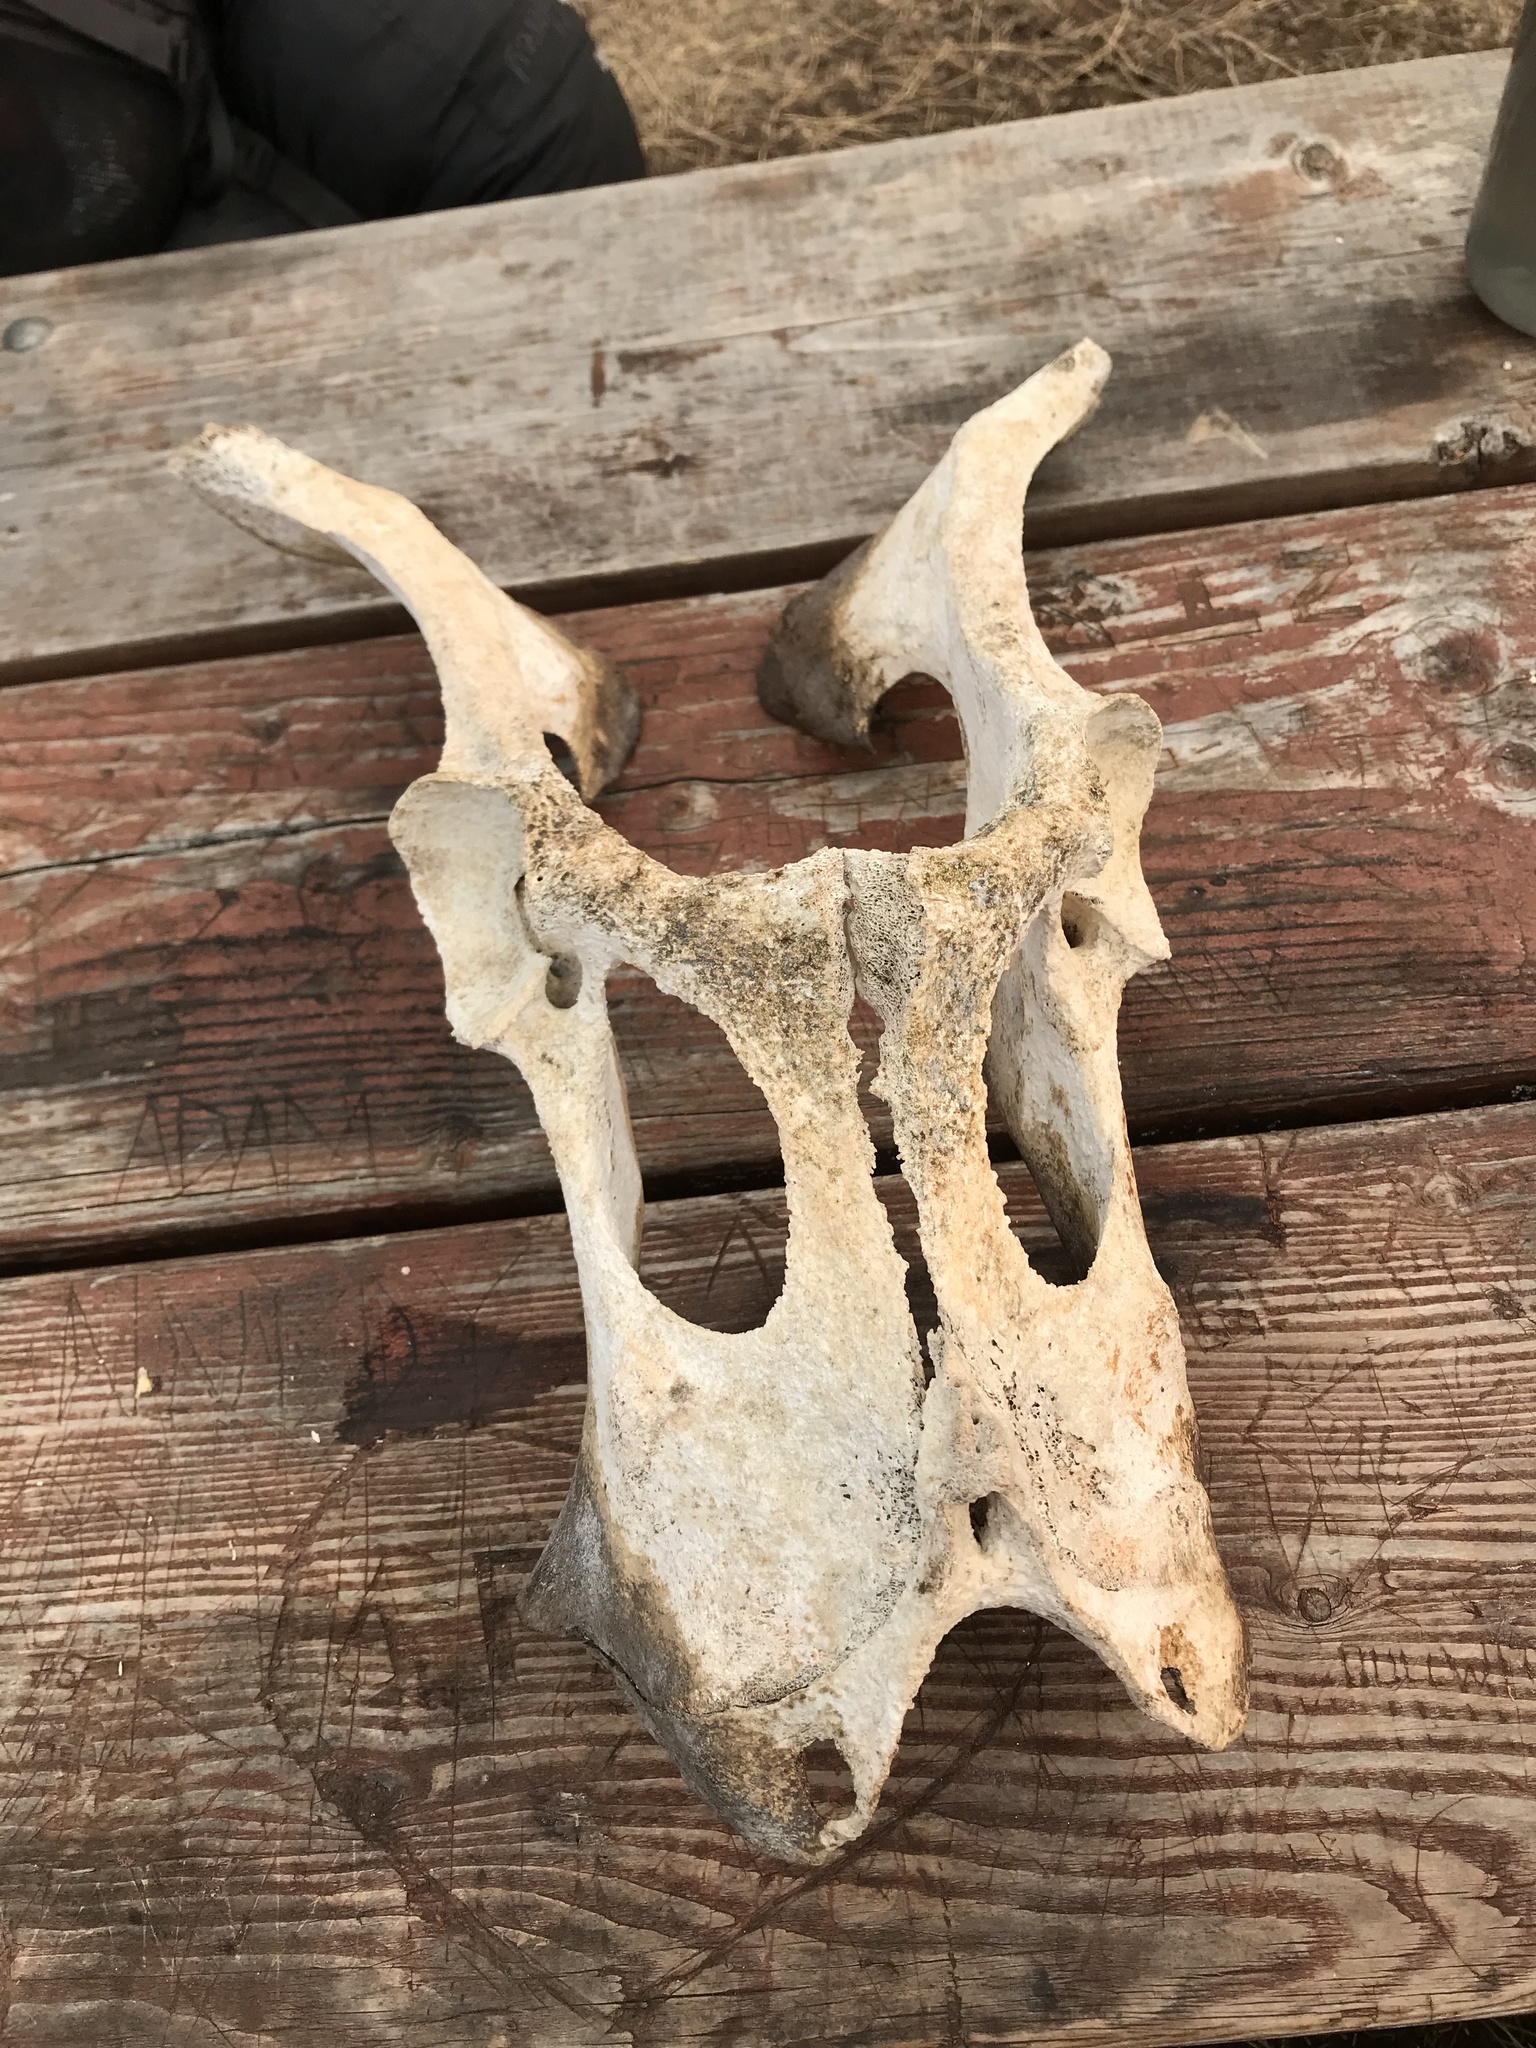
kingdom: Animalia
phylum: Chordata
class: Mammalia
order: Artiodactyla
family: Cervidae
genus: Alces
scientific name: Alces alces
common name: Moose
